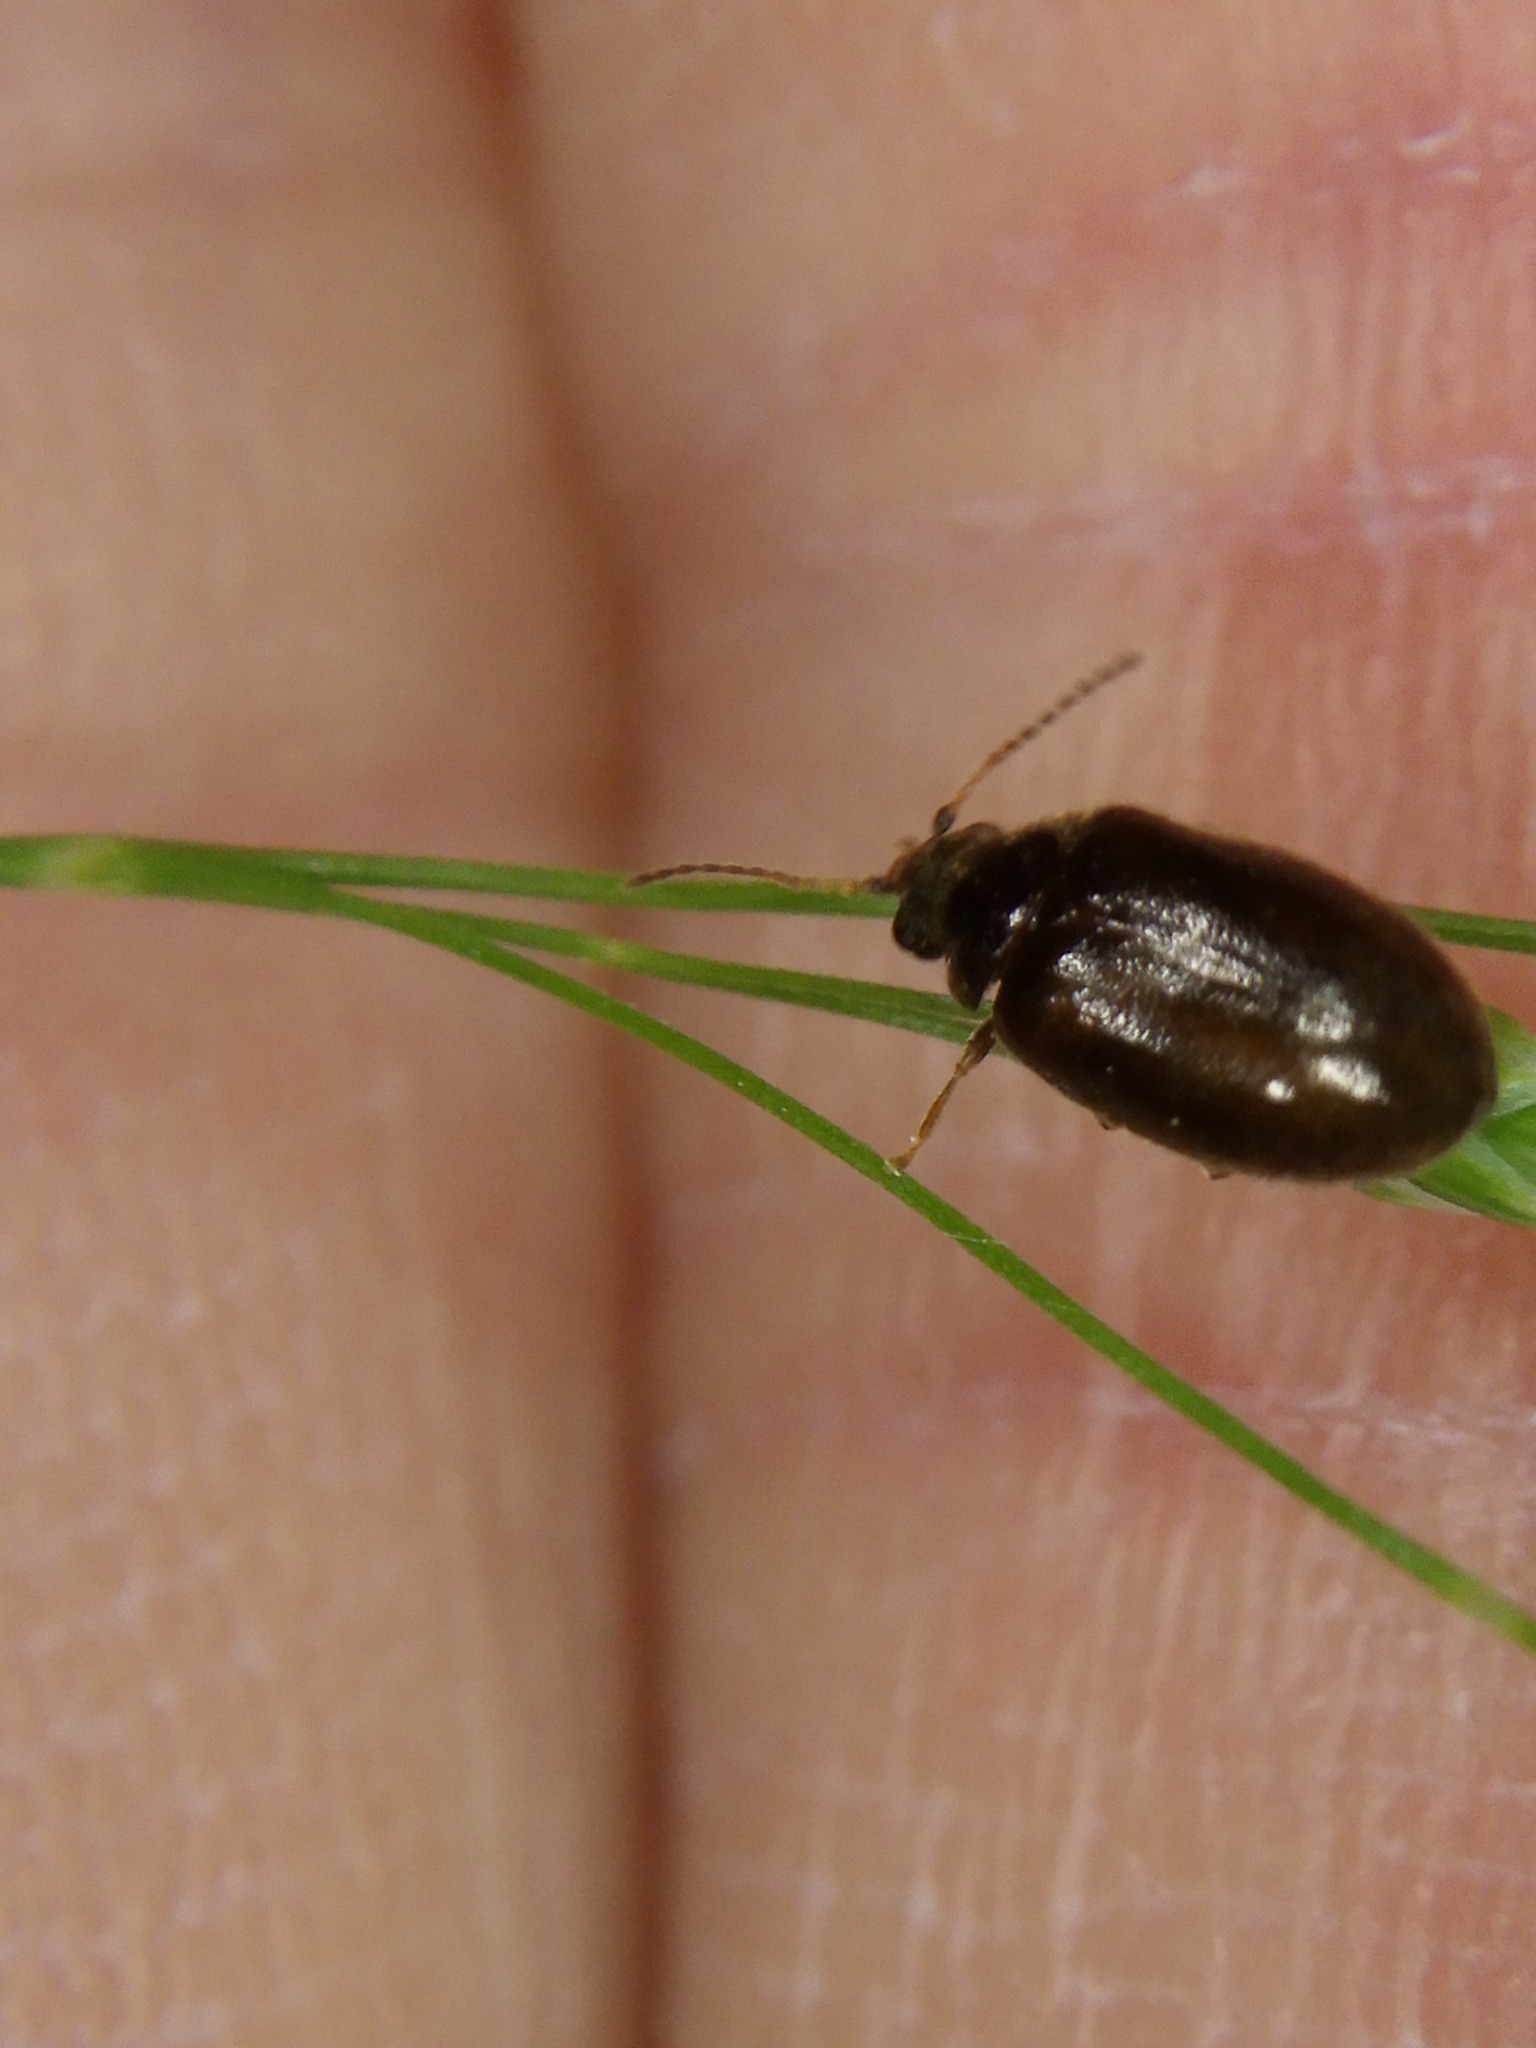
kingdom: Animalia
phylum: Arthropoda
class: Insecta
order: Coleoptera
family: Scirtidae
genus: Contacyphon
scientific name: Contacyphon
